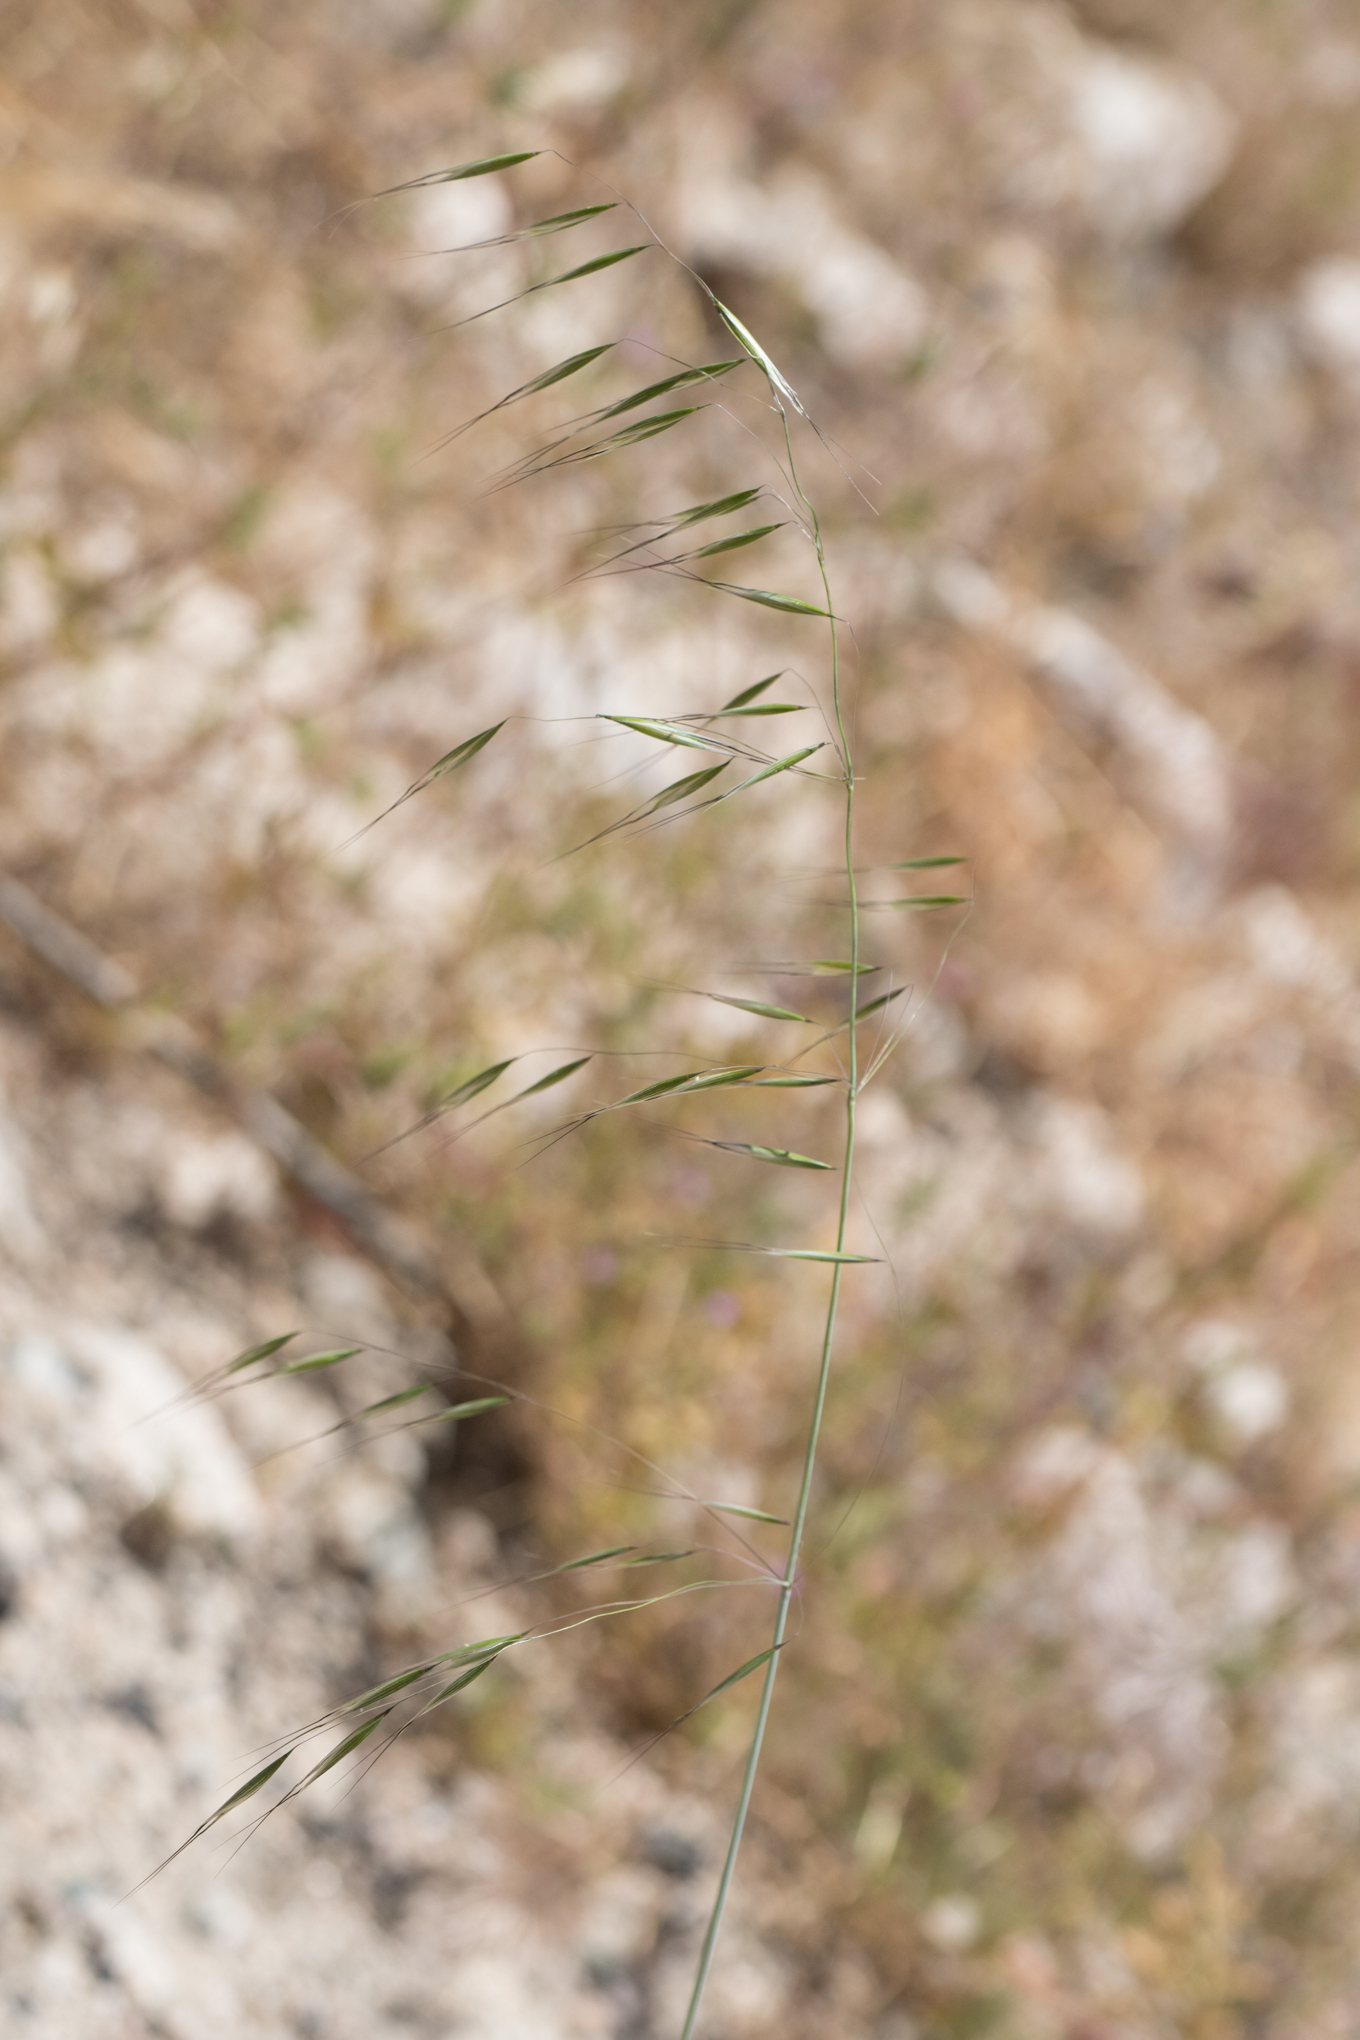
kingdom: Plantae
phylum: Tracheophyta
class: Liliopsida
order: Poales
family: Poaceae
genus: Avena
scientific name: Avena barbata
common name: Slender oat
